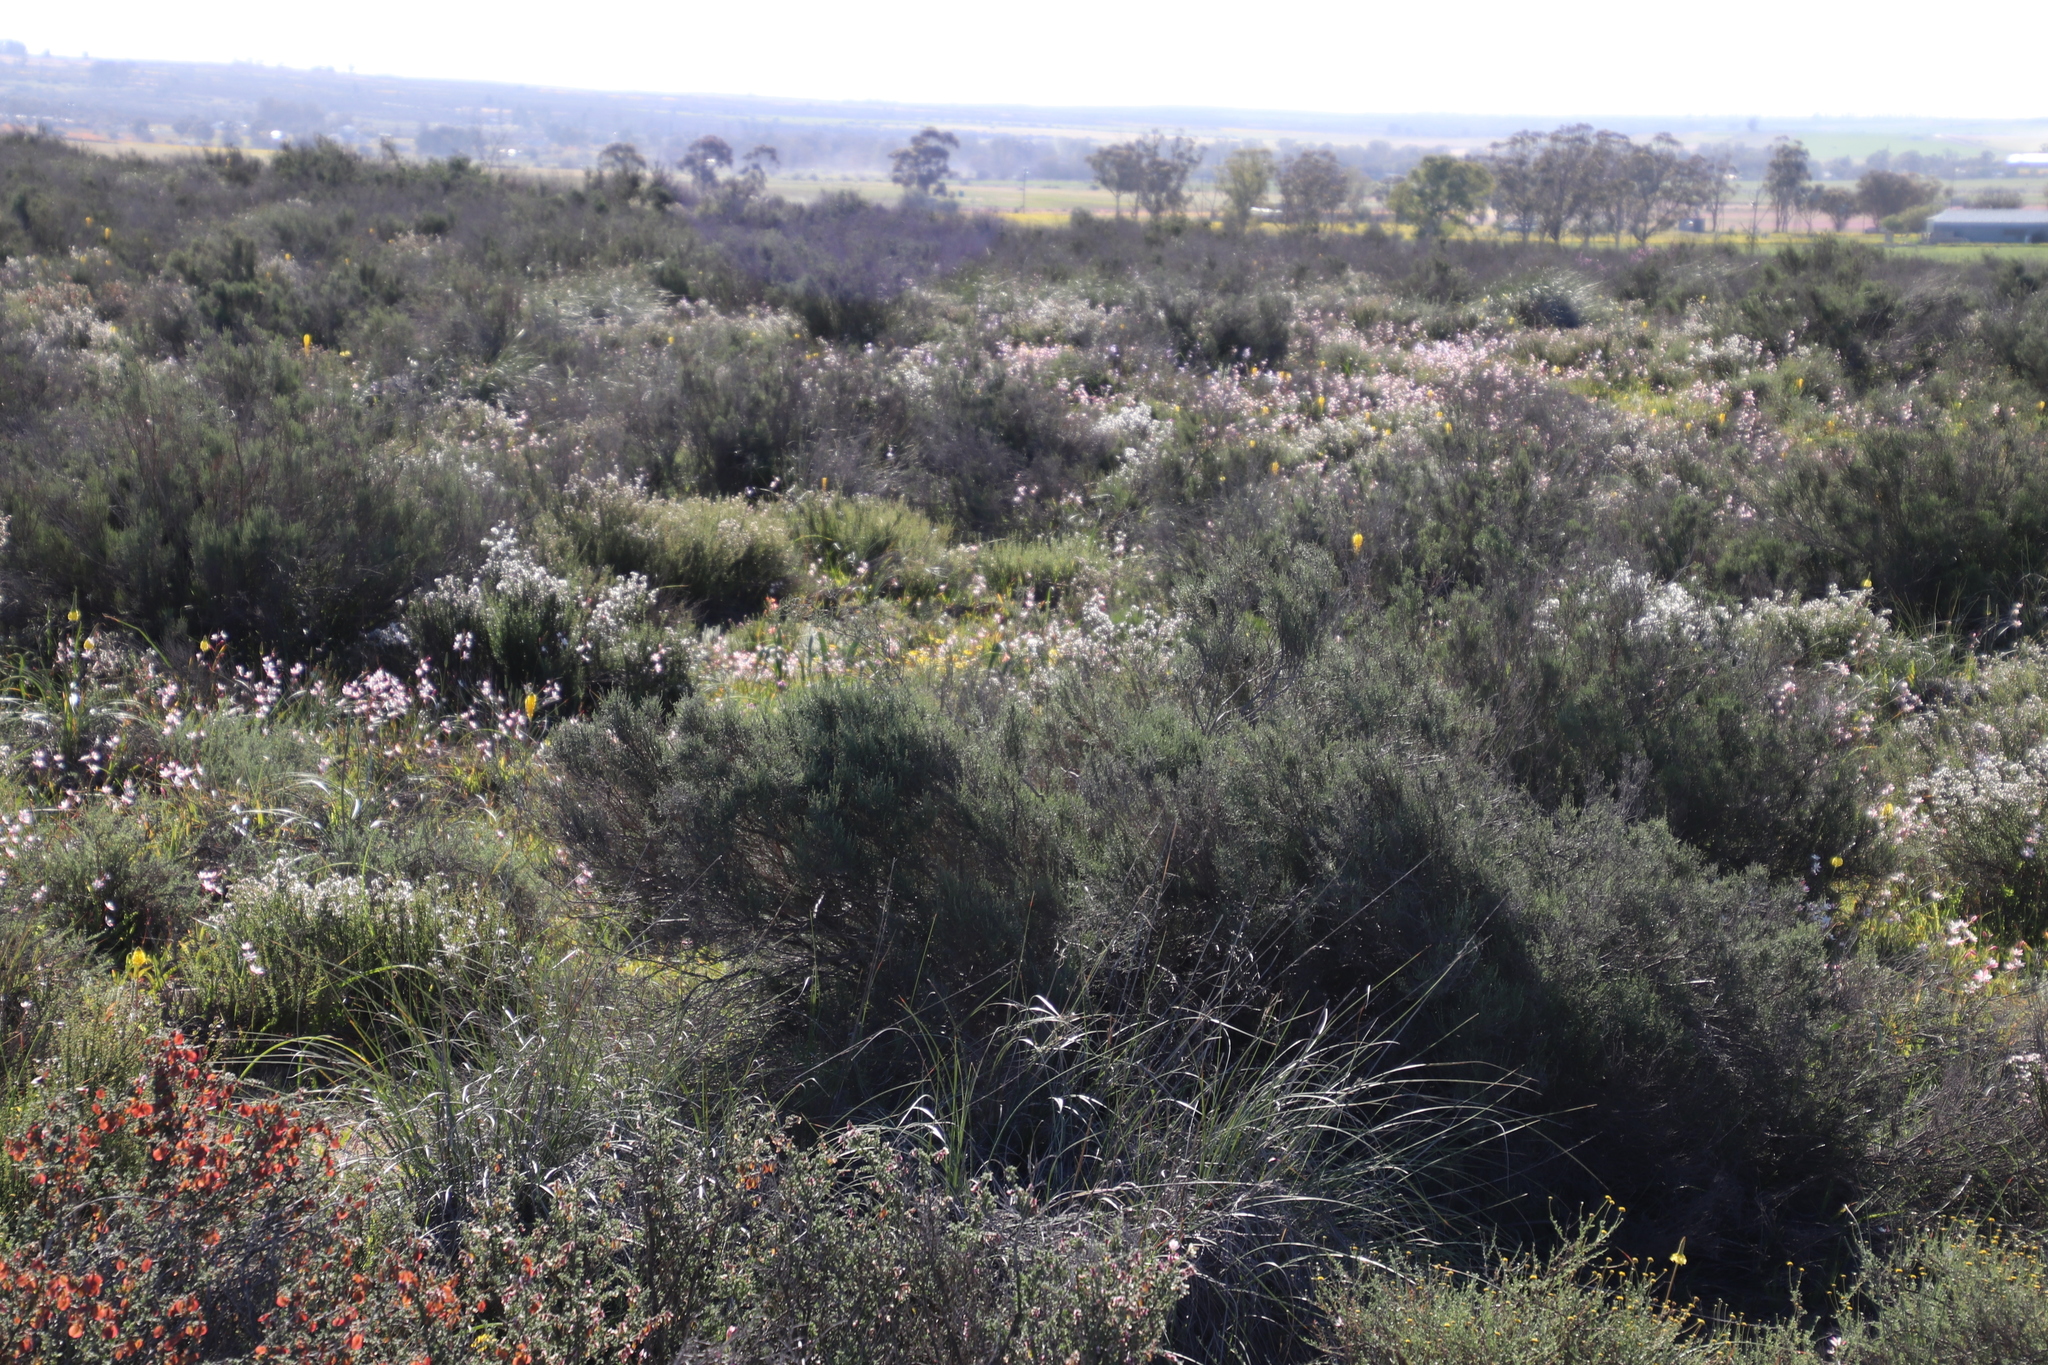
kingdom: Plantae
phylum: Tracheophyta
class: Magnoliopsida
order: Asterales
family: Asteraceae
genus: Dicerothamnus
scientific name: Dicerothamnus rhinocerotis
